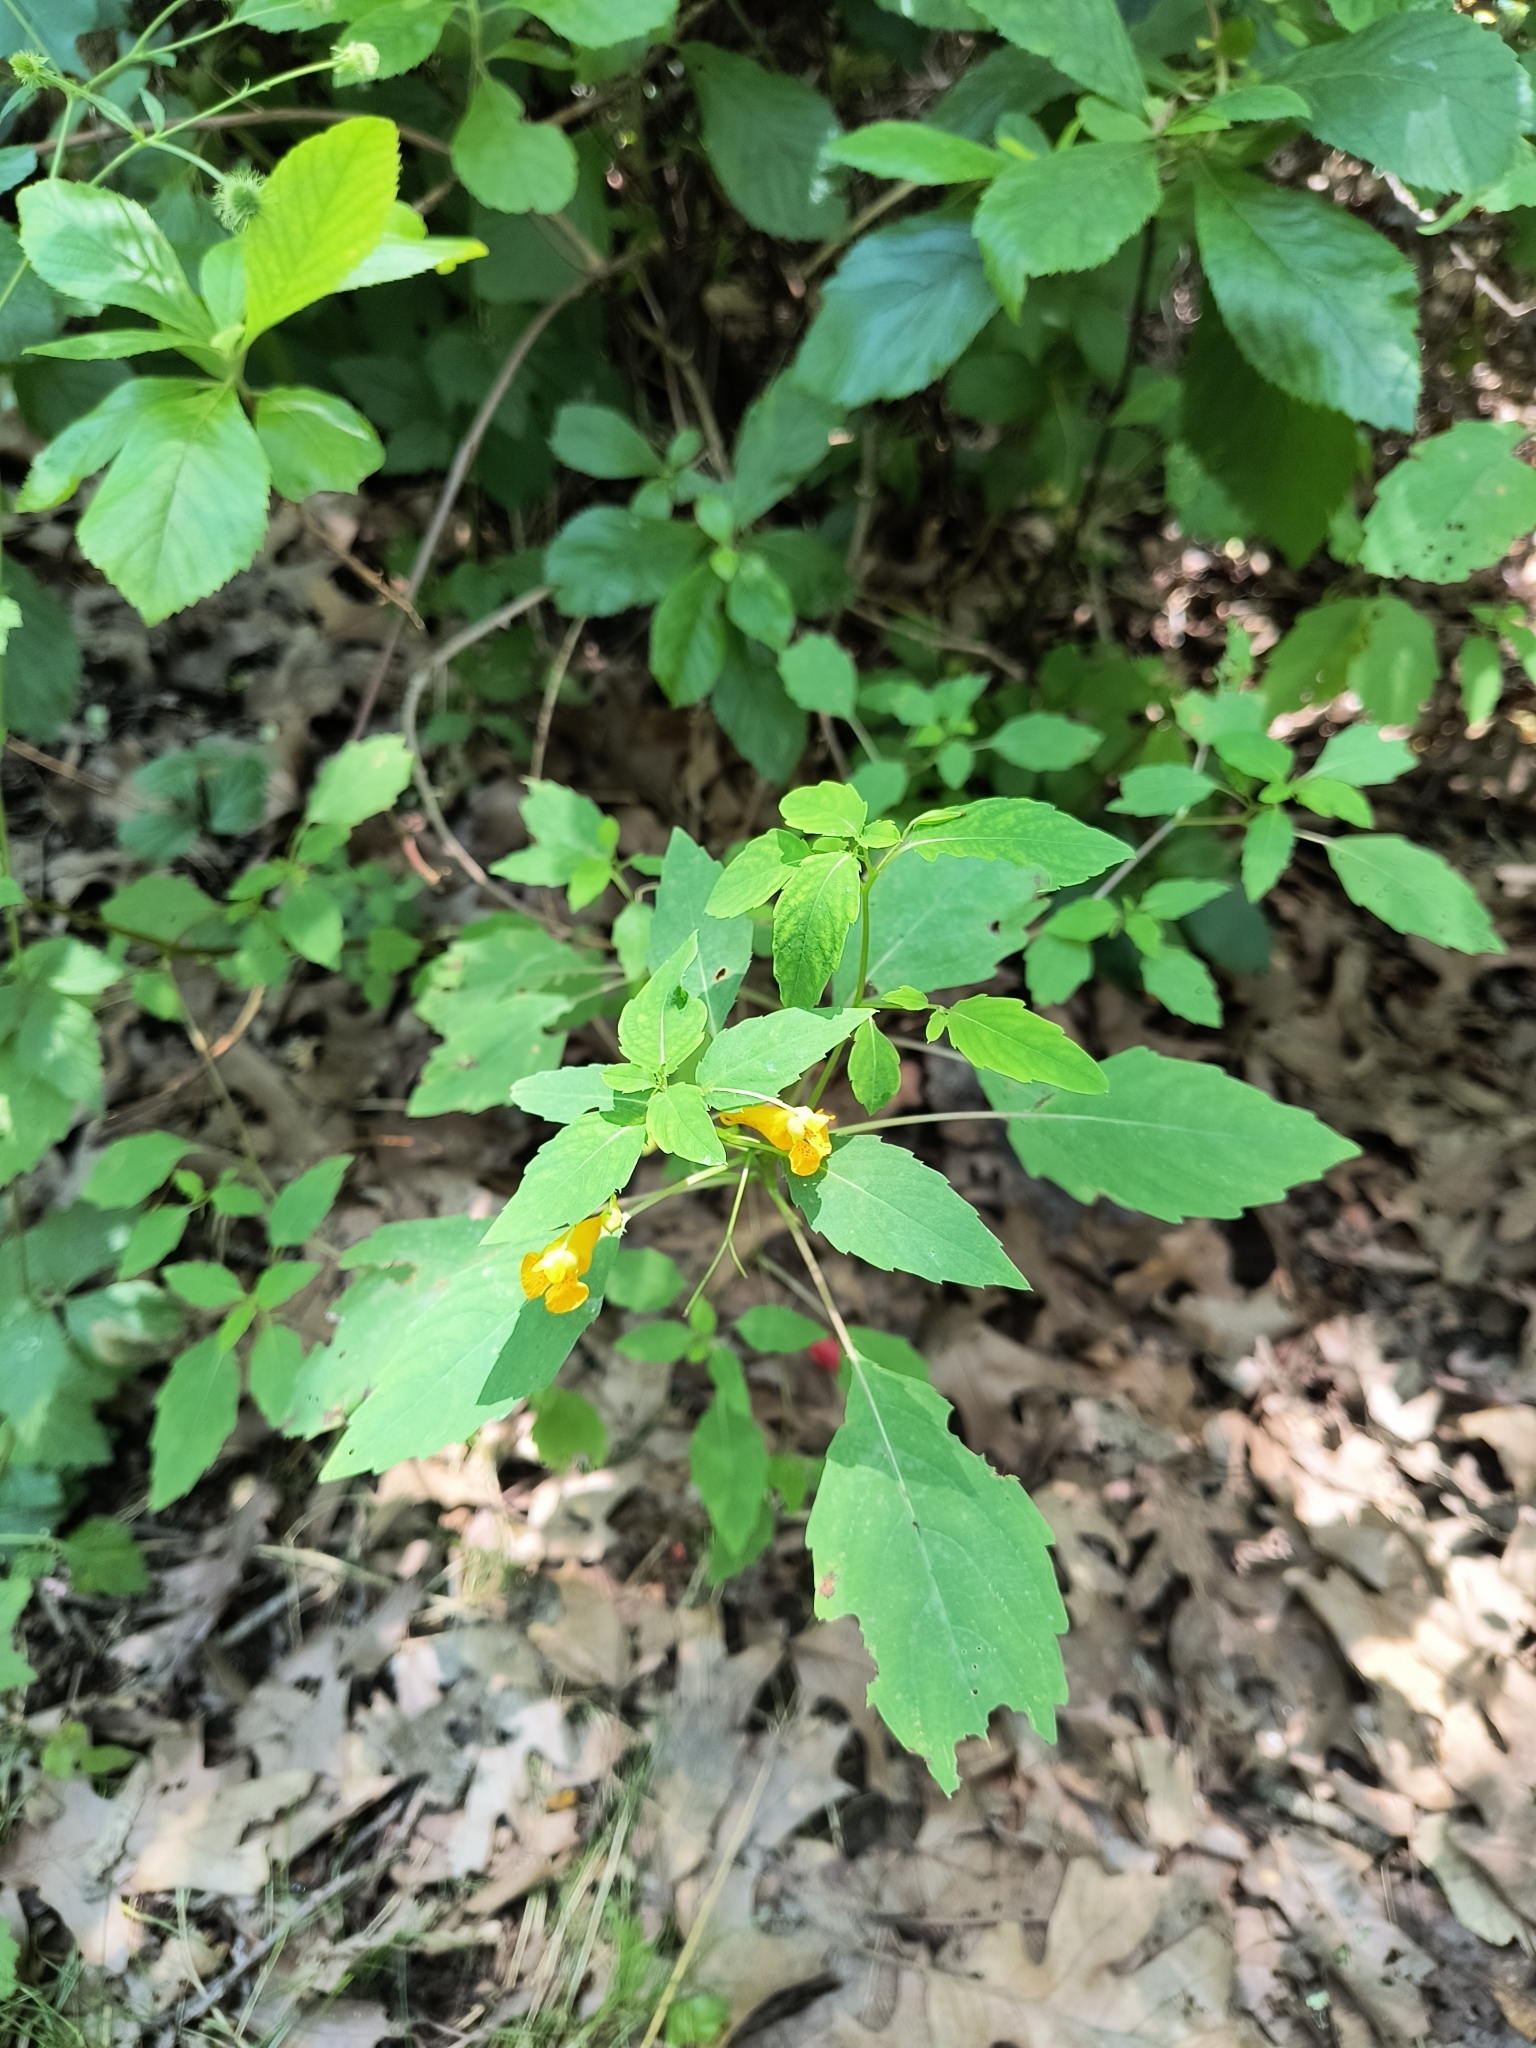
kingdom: Plantae
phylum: Tracheophyta
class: Magnoliopsida
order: Ericales
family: Balsaminaceae
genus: Impatiens
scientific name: Impatiens capensis
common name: Orange balsam
